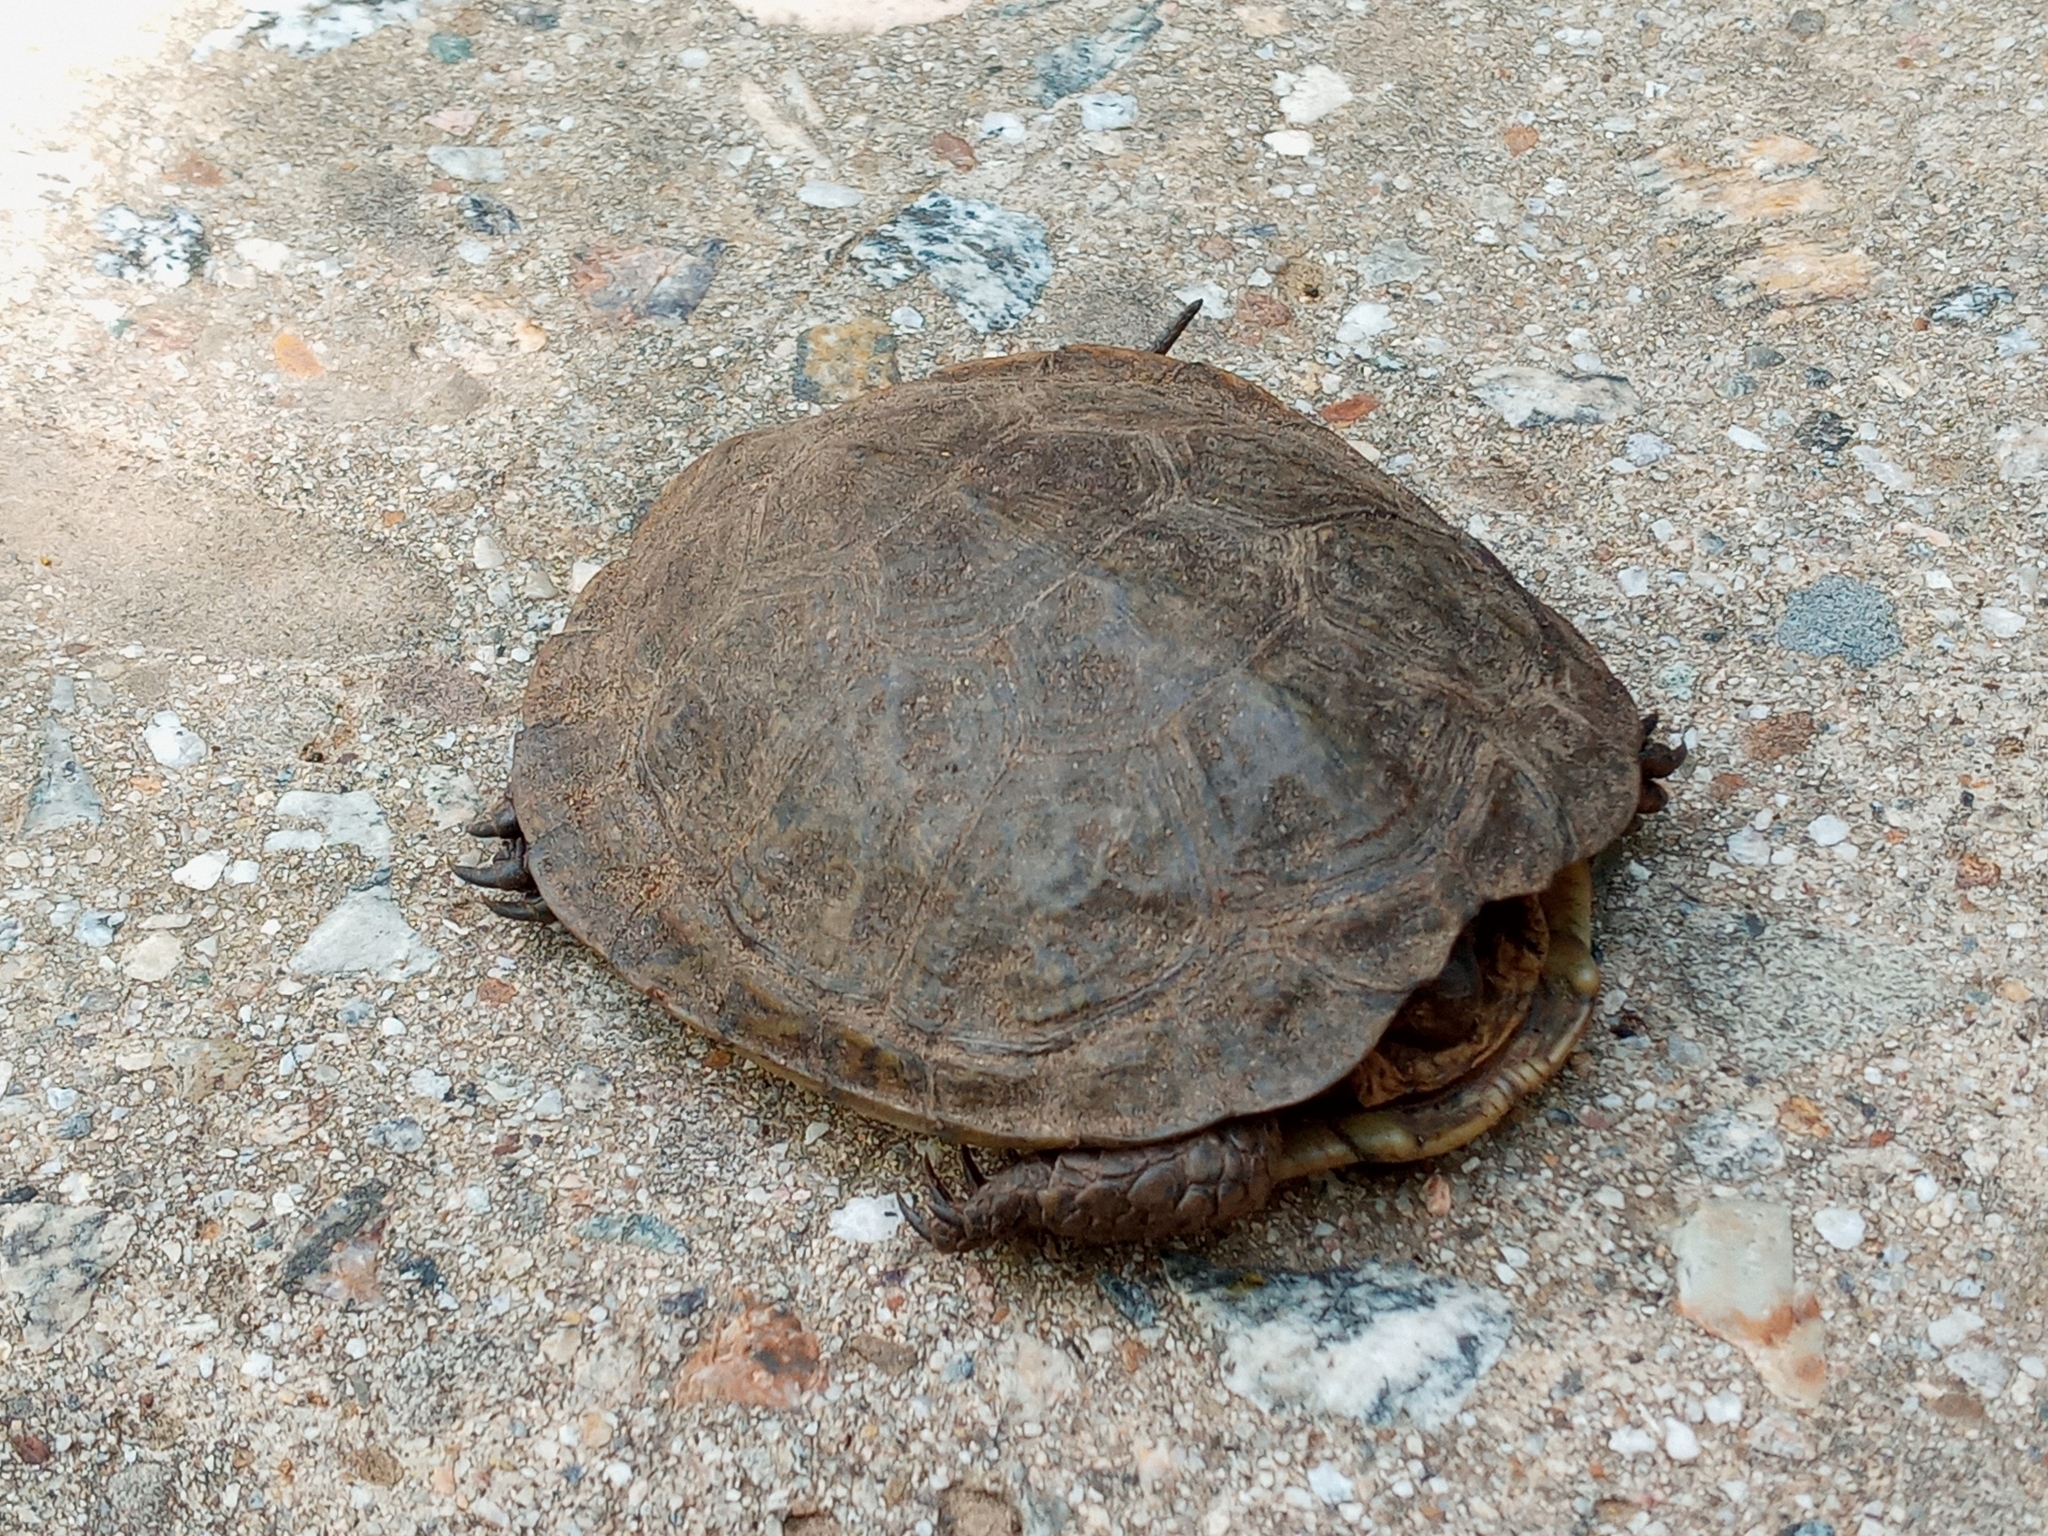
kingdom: Animalia
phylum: Chordata
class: Testudines
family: Emydidae
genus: Actinemys
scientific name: Actinemys marmorata
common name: Western pond turtle
